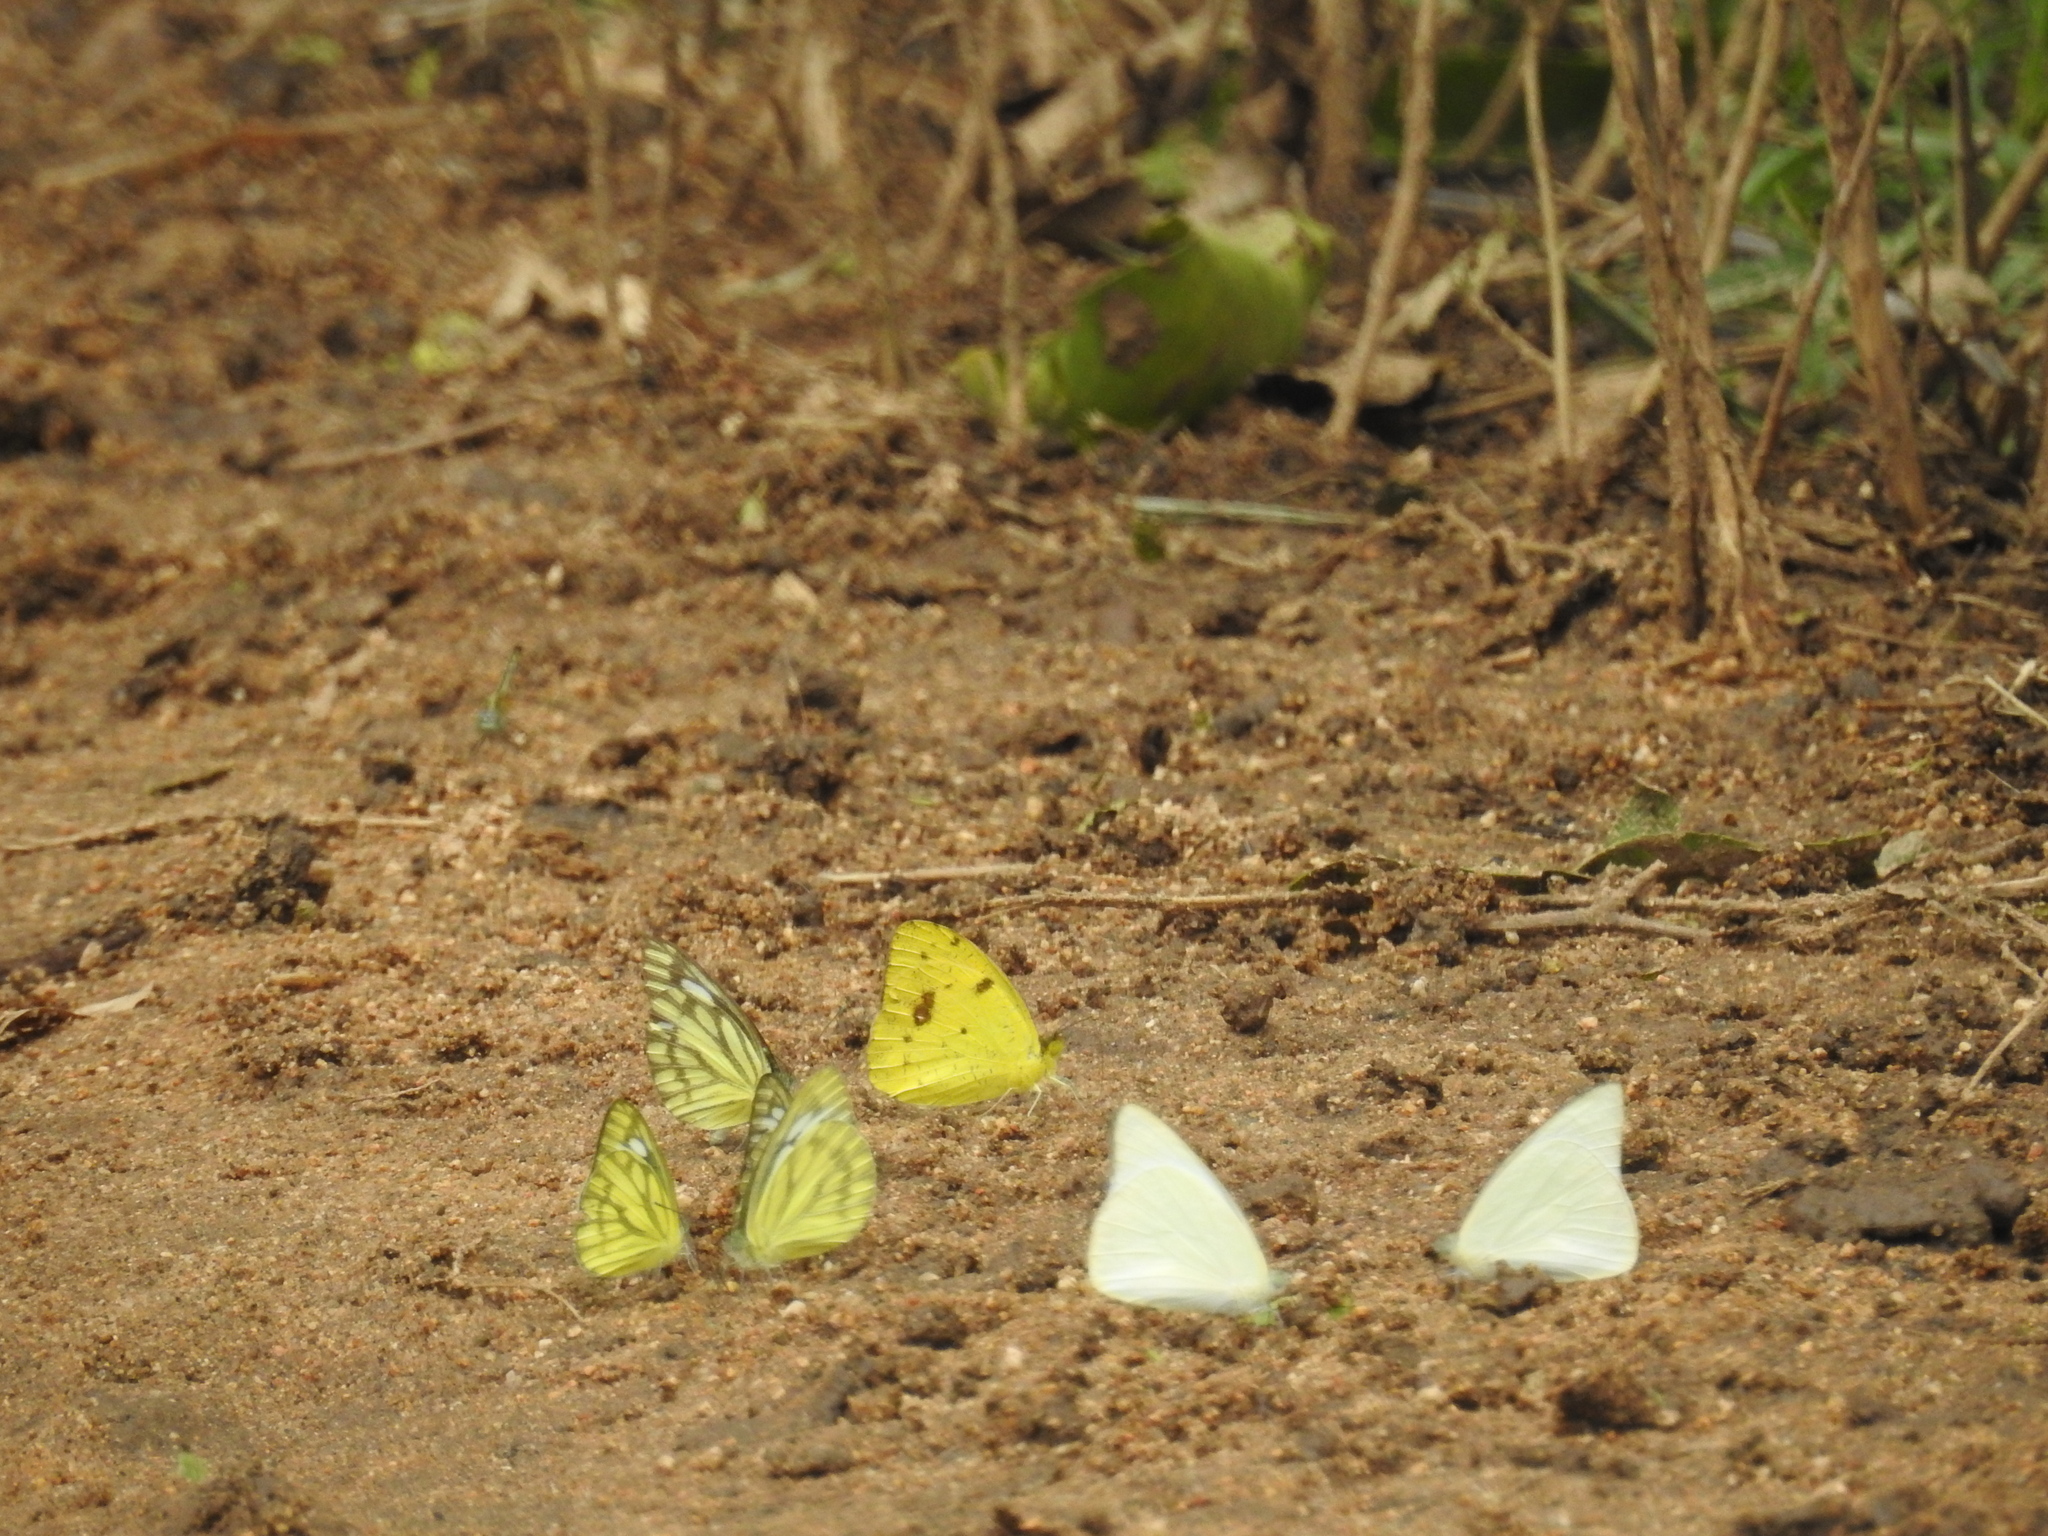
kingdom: Animalia
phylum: Arthropoda
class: Insecta
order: Lepidoptera
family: Pieridae
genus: Catopsilia
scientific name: Catopsilia pomona
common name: Common emigrant
